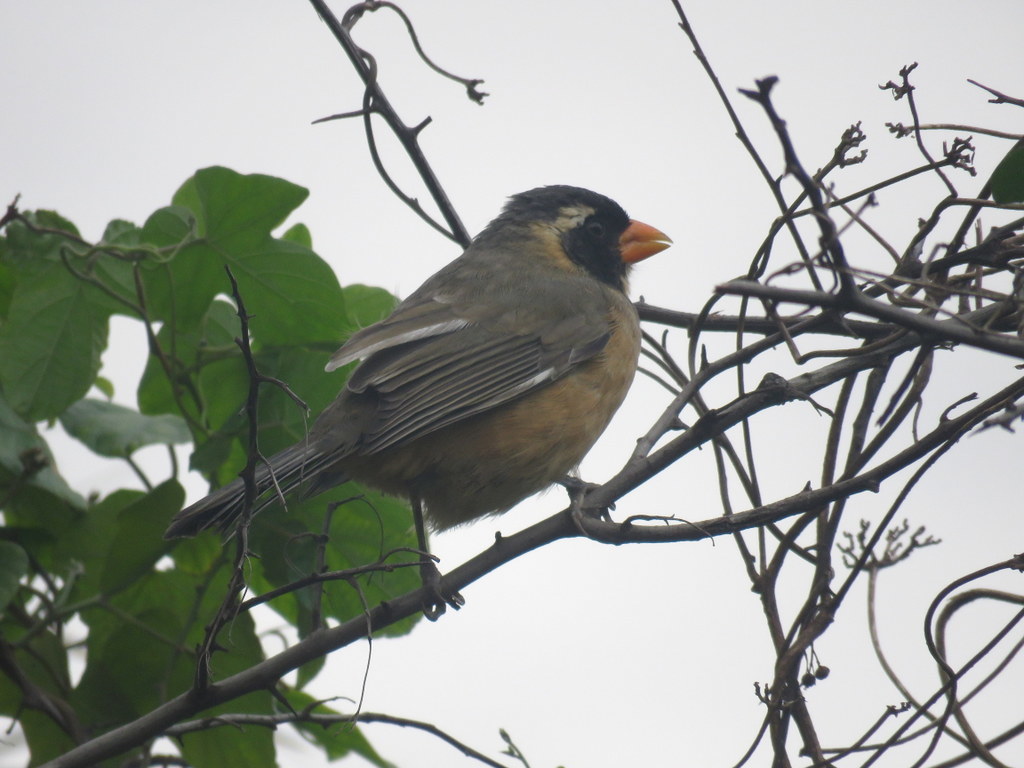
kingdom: Animalia
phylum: Chordata
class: Aves
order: Passeriformes
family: Thraupidae
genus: Saltator
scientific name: Saltator aurantiirostris
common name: Golden-billed saltator
